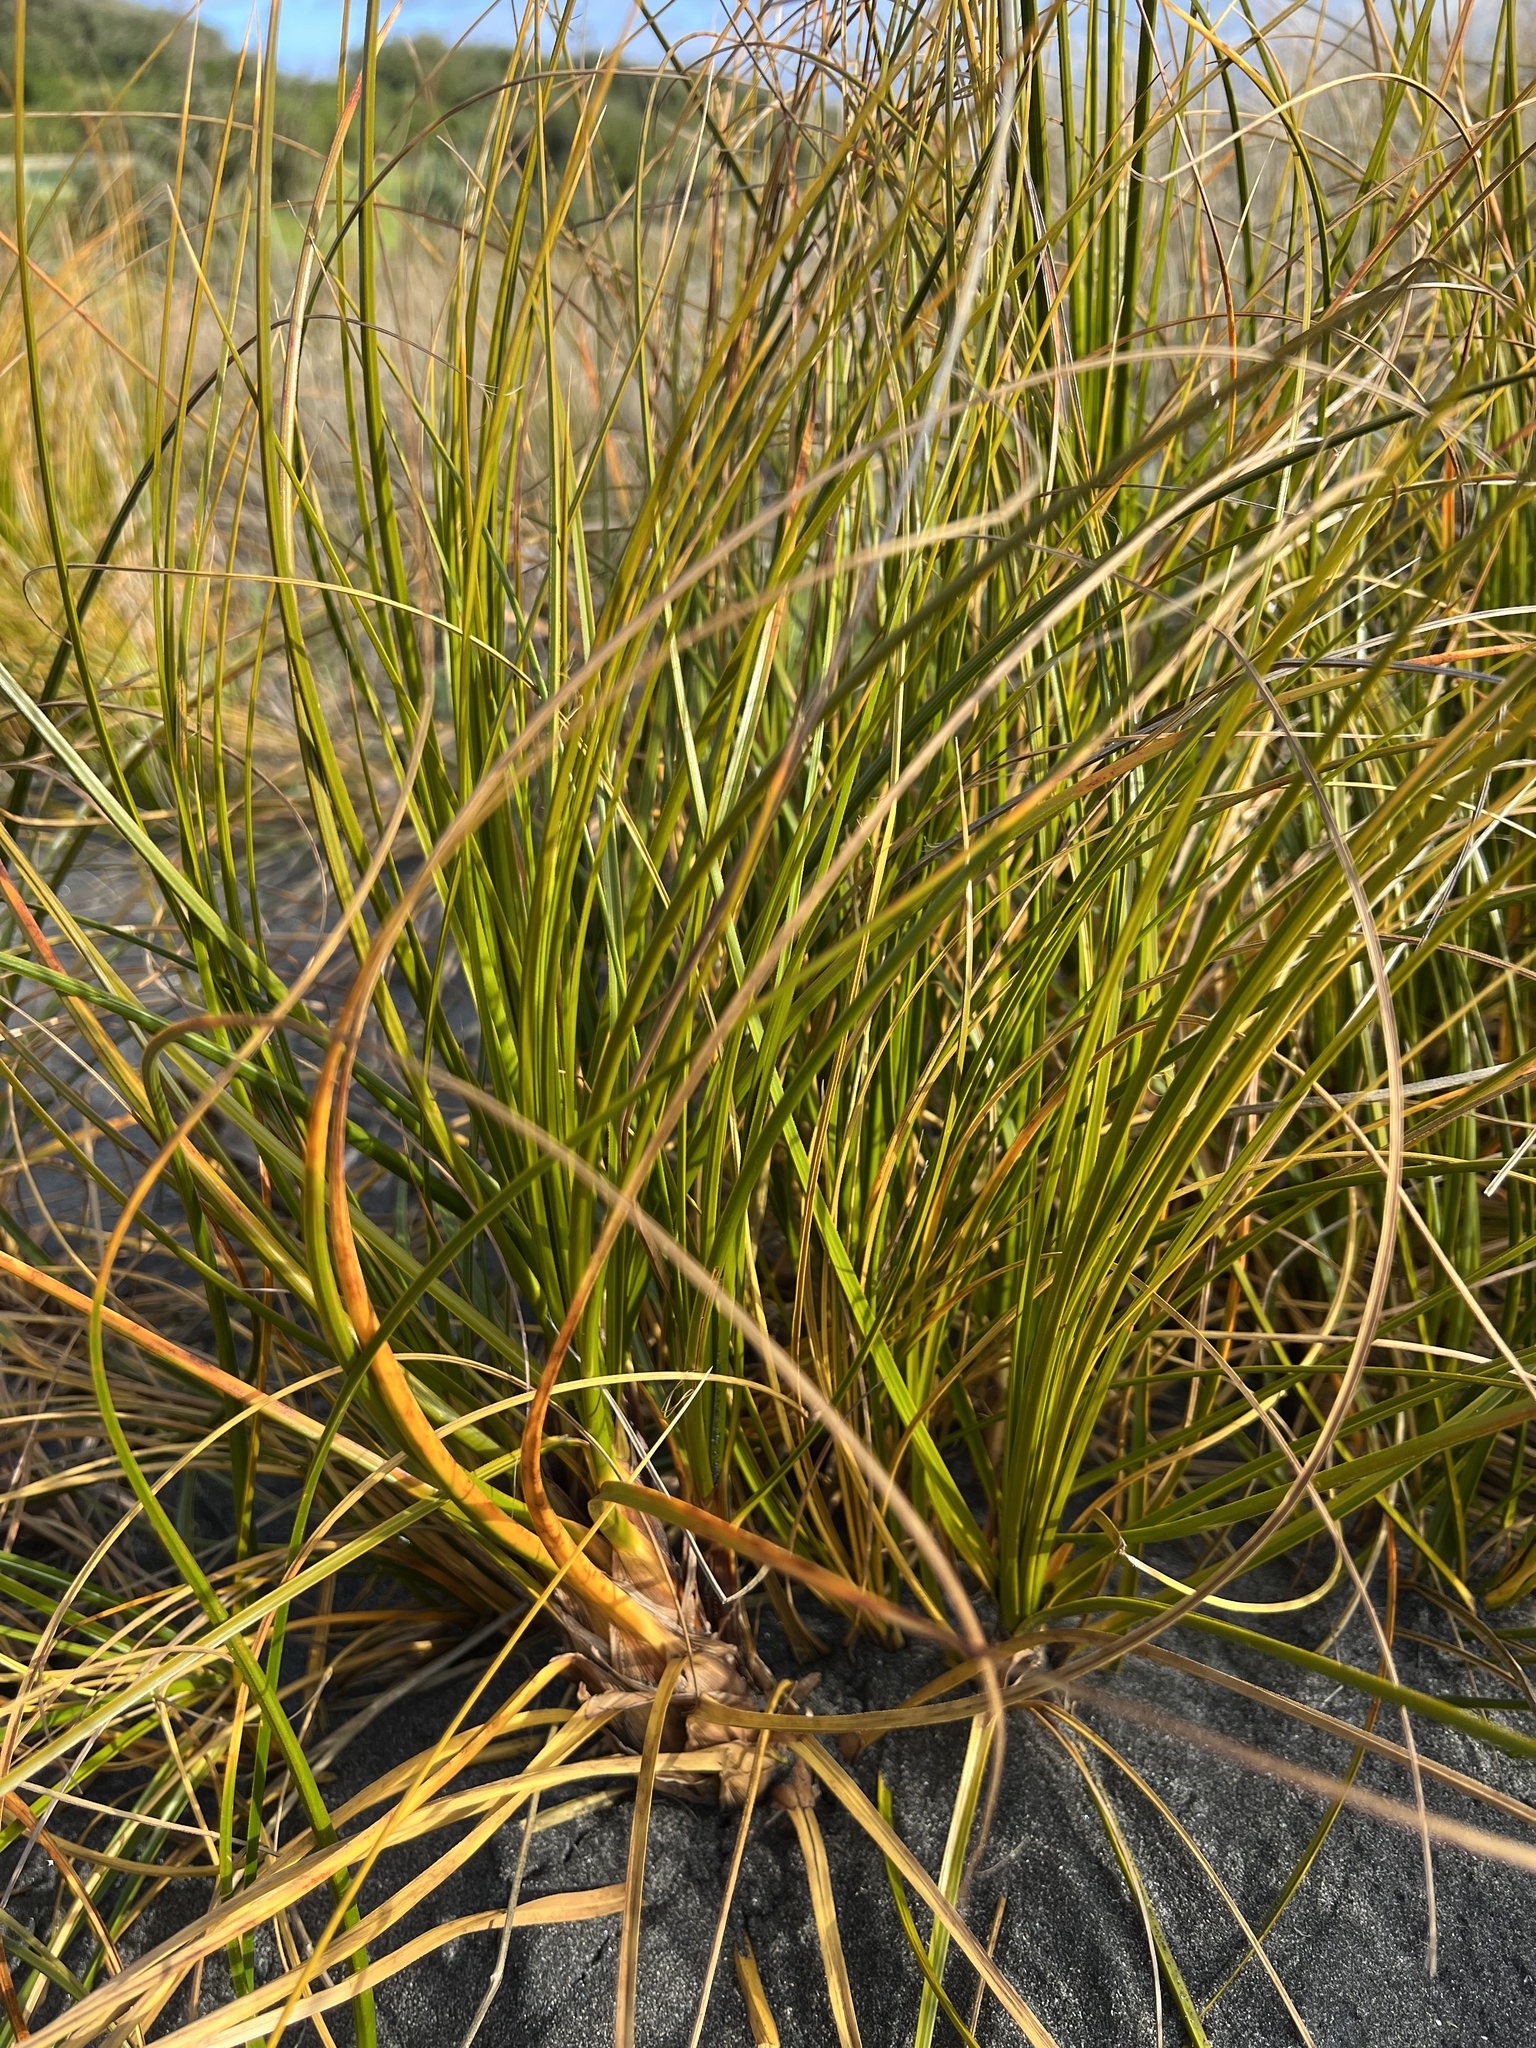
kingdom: Plantae
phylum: Tracheophyta
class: Liliopsida
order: Poales
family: Cyperaceae
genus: Ficinia
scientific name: Ficinia spiralis
